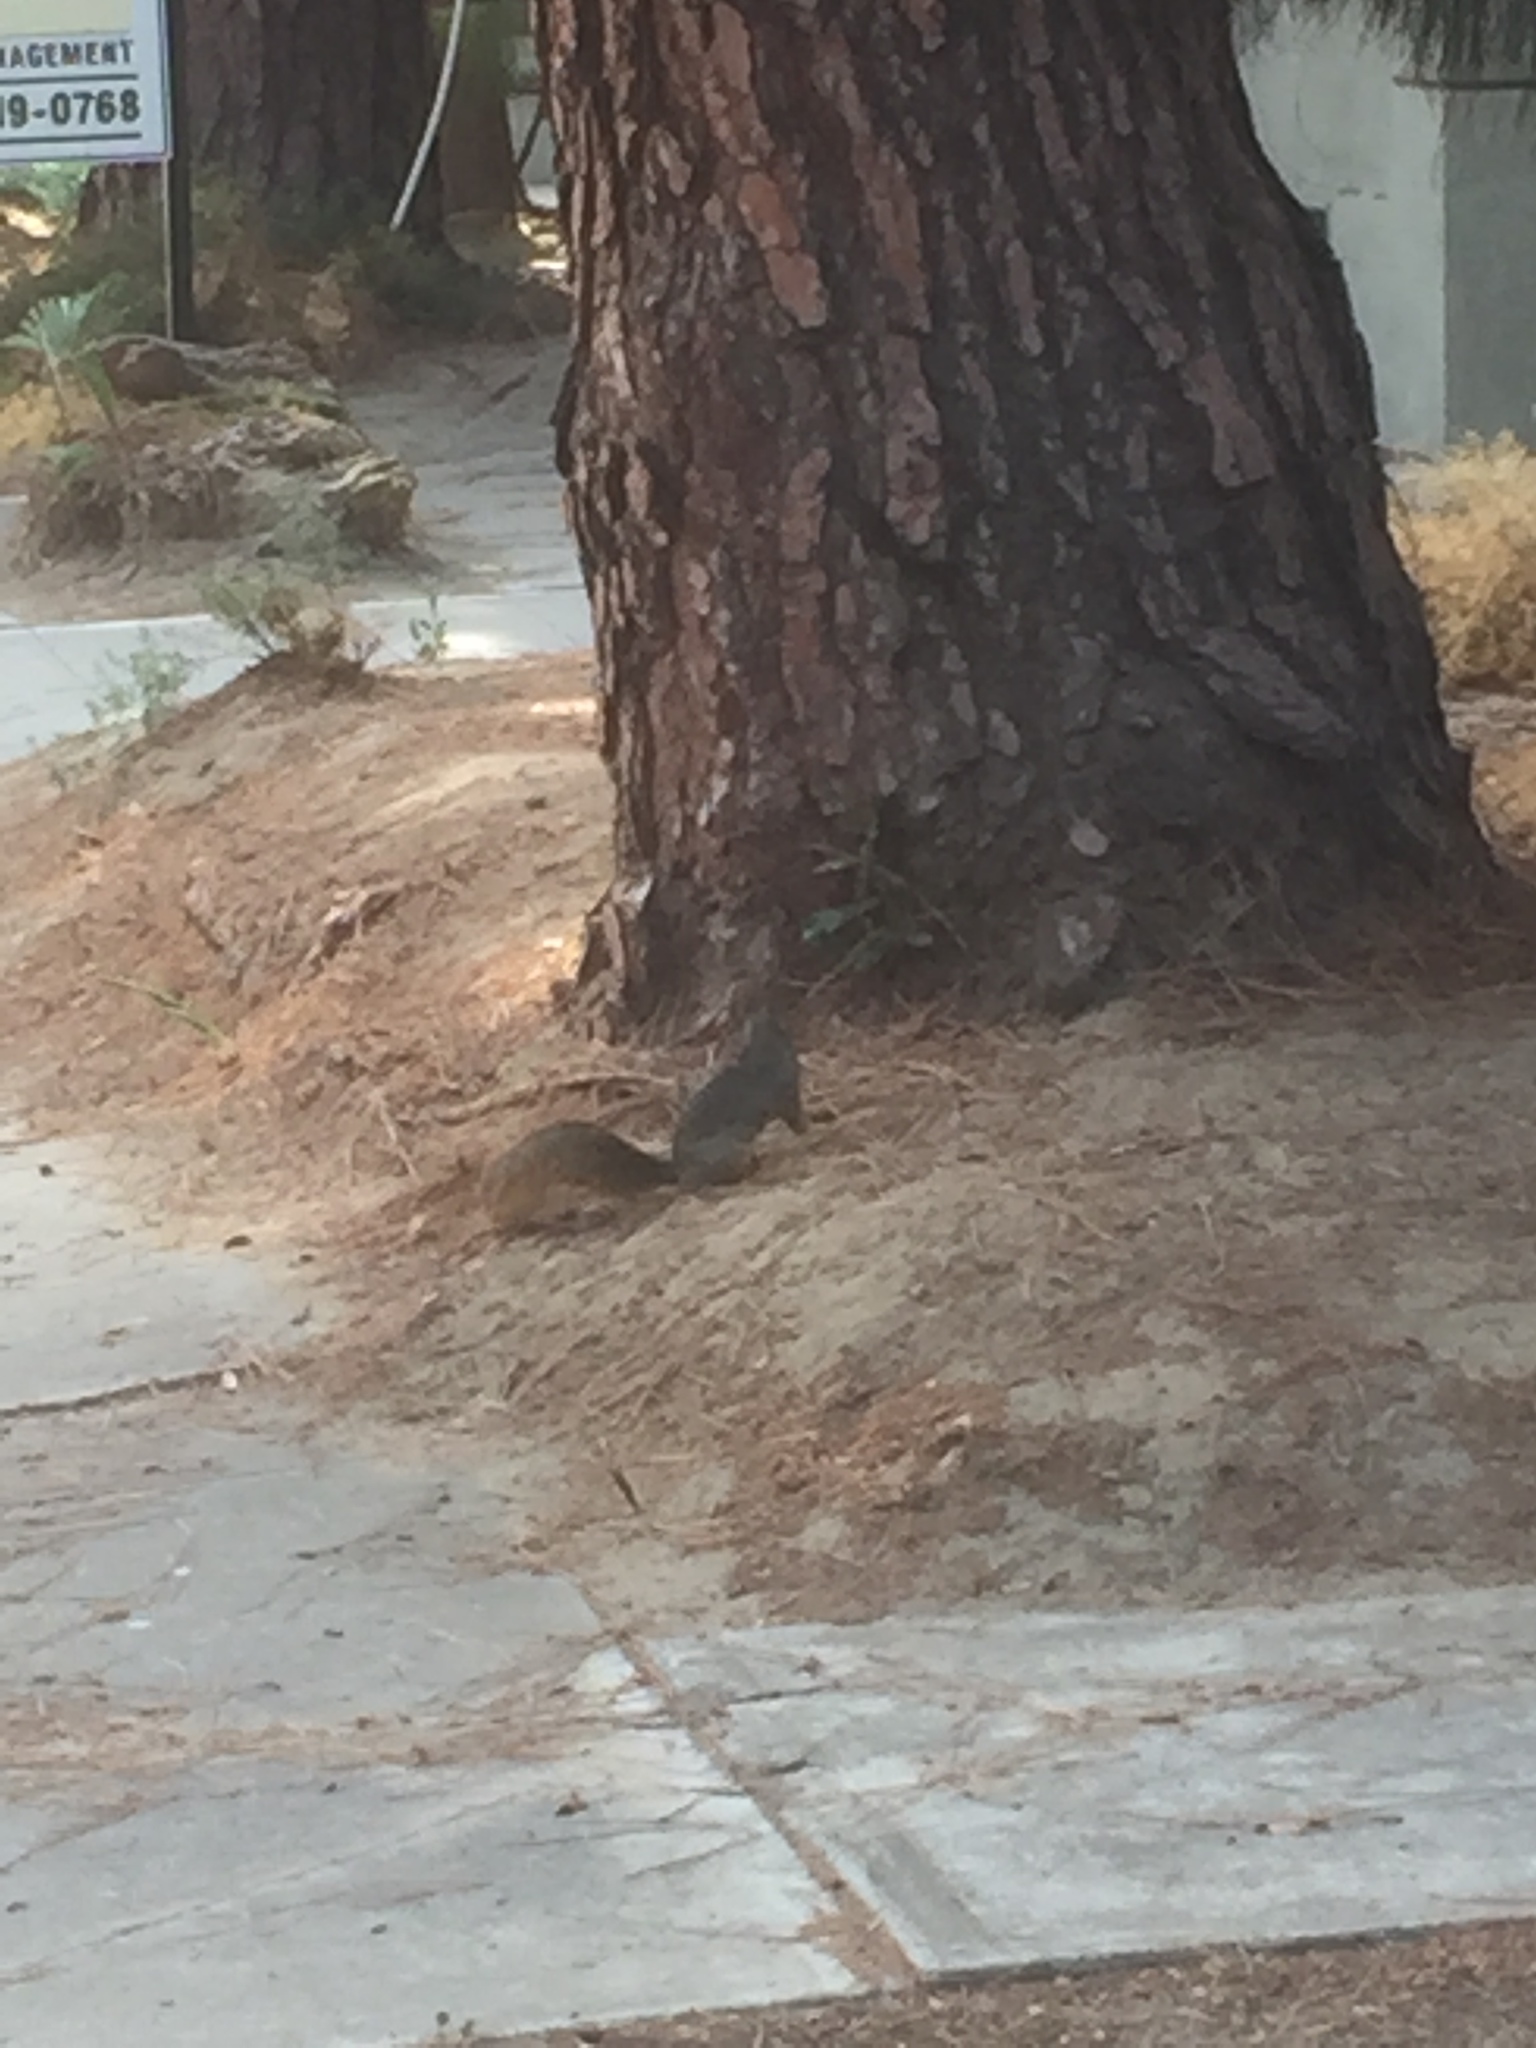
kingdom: Animalia
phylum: Chordata
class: Mammalia
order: Rodentia
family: Sciuridae
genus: Sciurus
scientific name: Sciurus niger
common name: Fox squirrel
